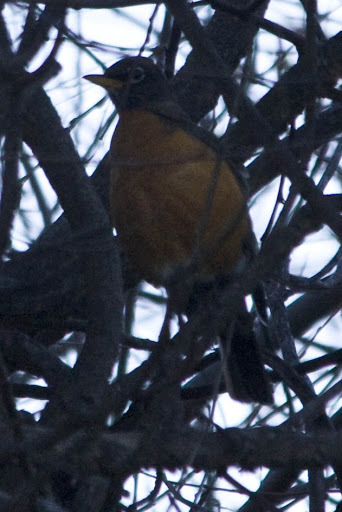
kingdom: Animalia
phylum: Chordata
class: Aves
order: Passeriformes
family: Turdidae
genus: Turdus
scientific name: Turdus migratorius
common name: American robin
